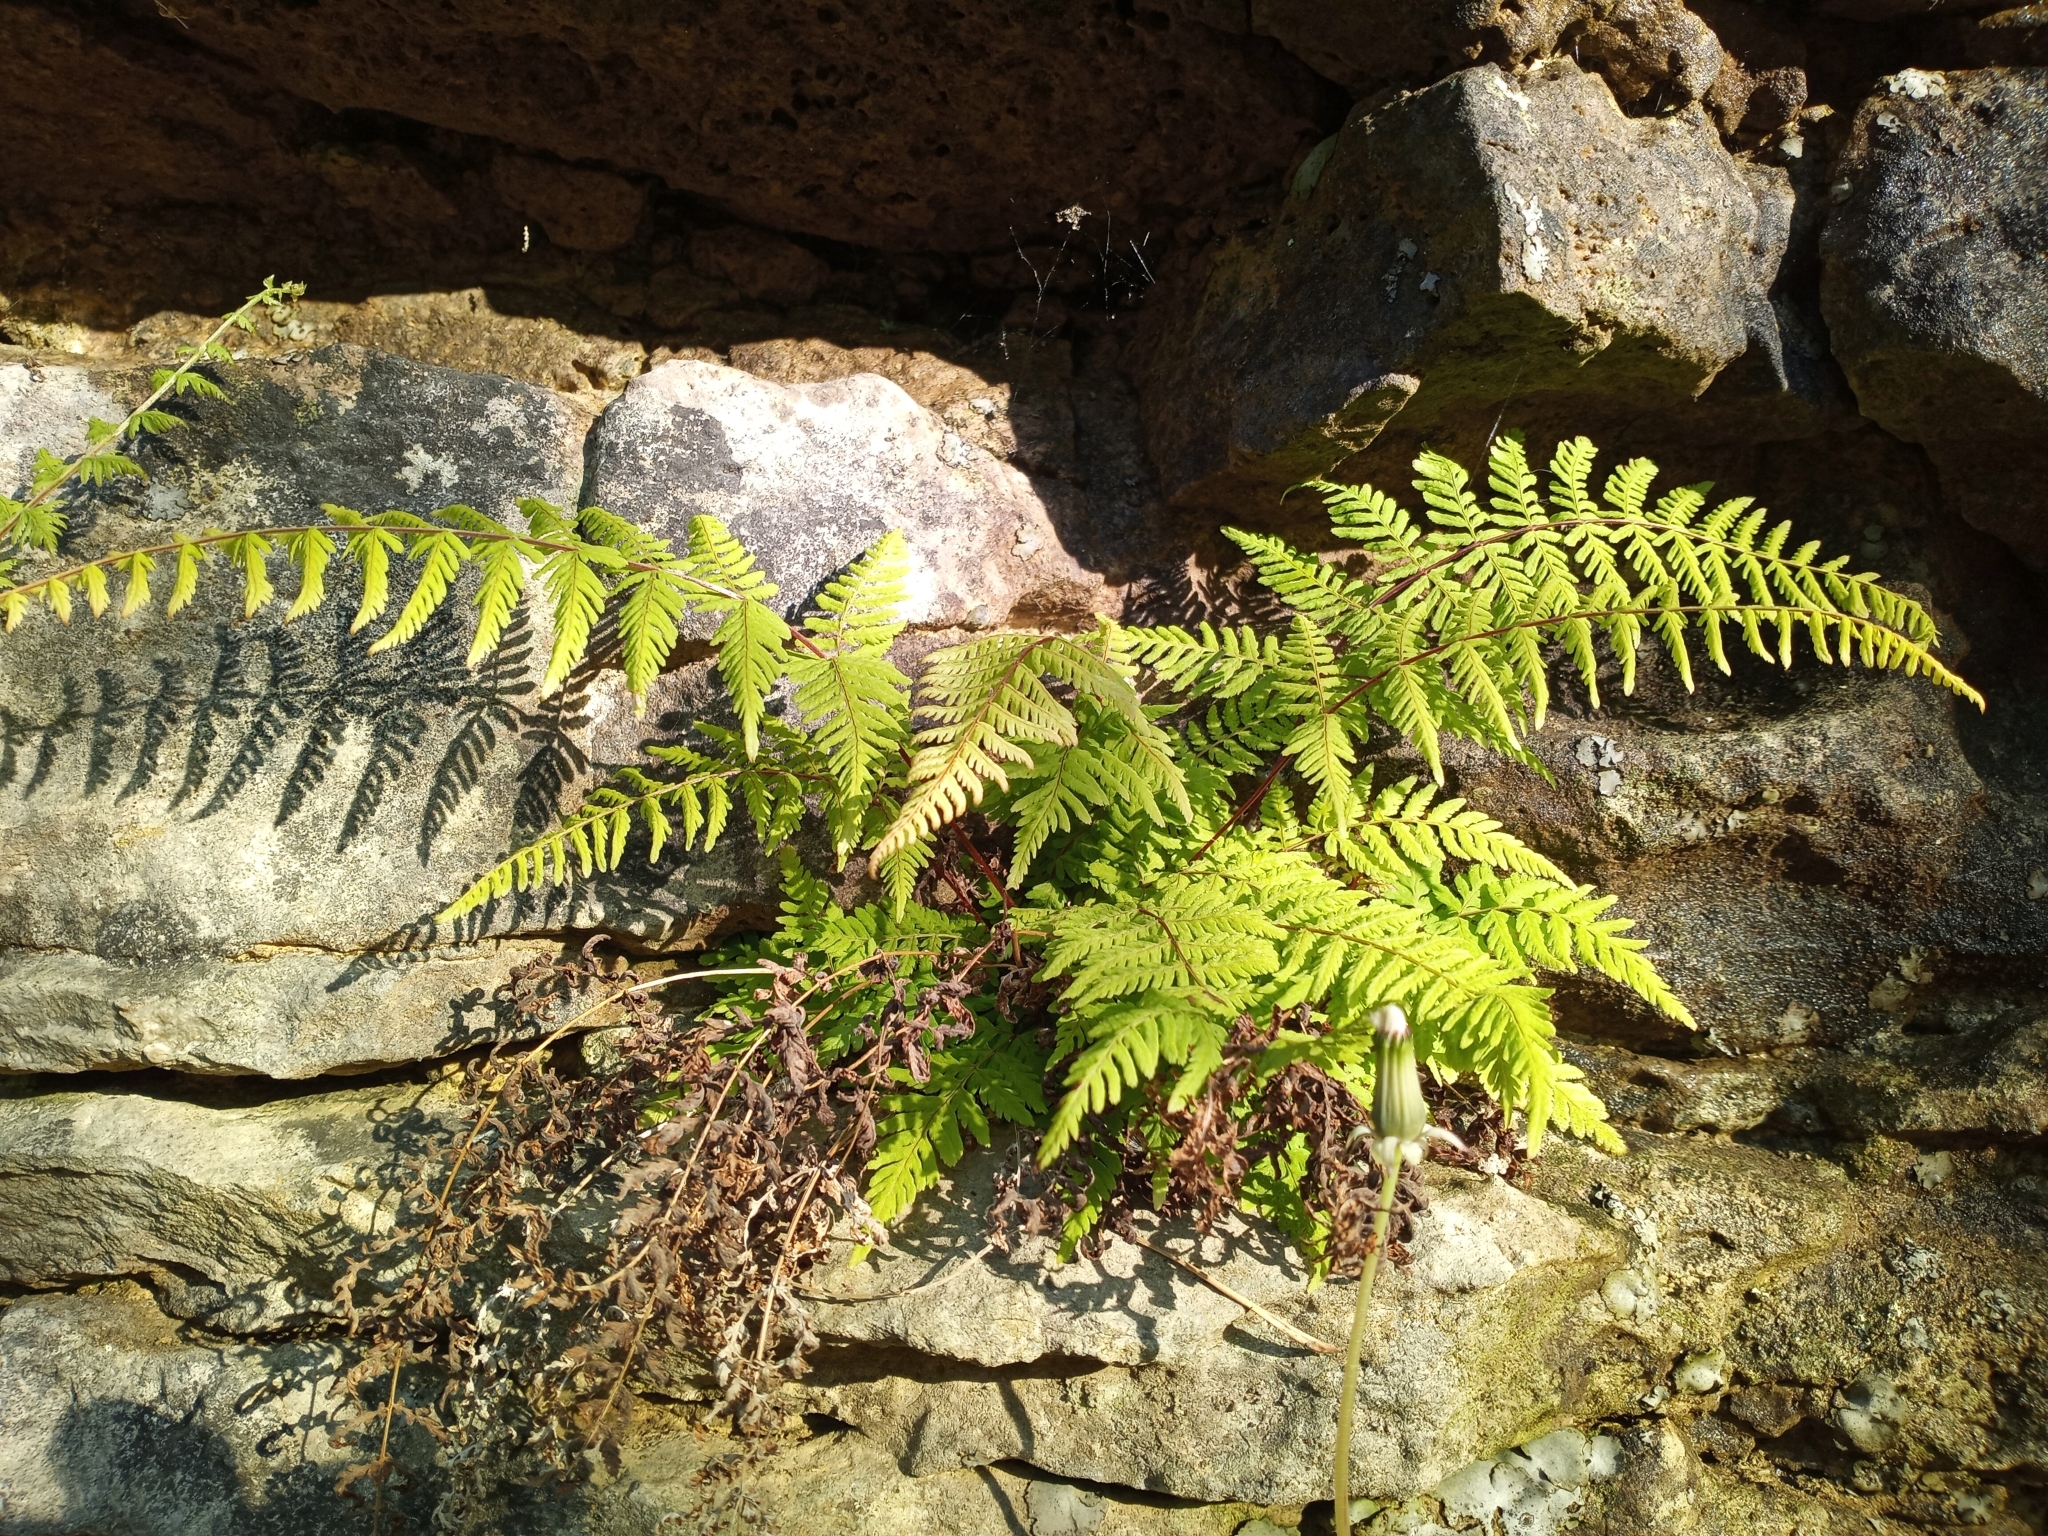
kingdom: Plantae
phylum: Tracheophyta
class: Polypodiopsida
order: Polypodiales
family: Cystopteridaceae
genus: Cystopteris
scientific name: Cystopteris bulbifera
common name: Bulblet bladder fern
